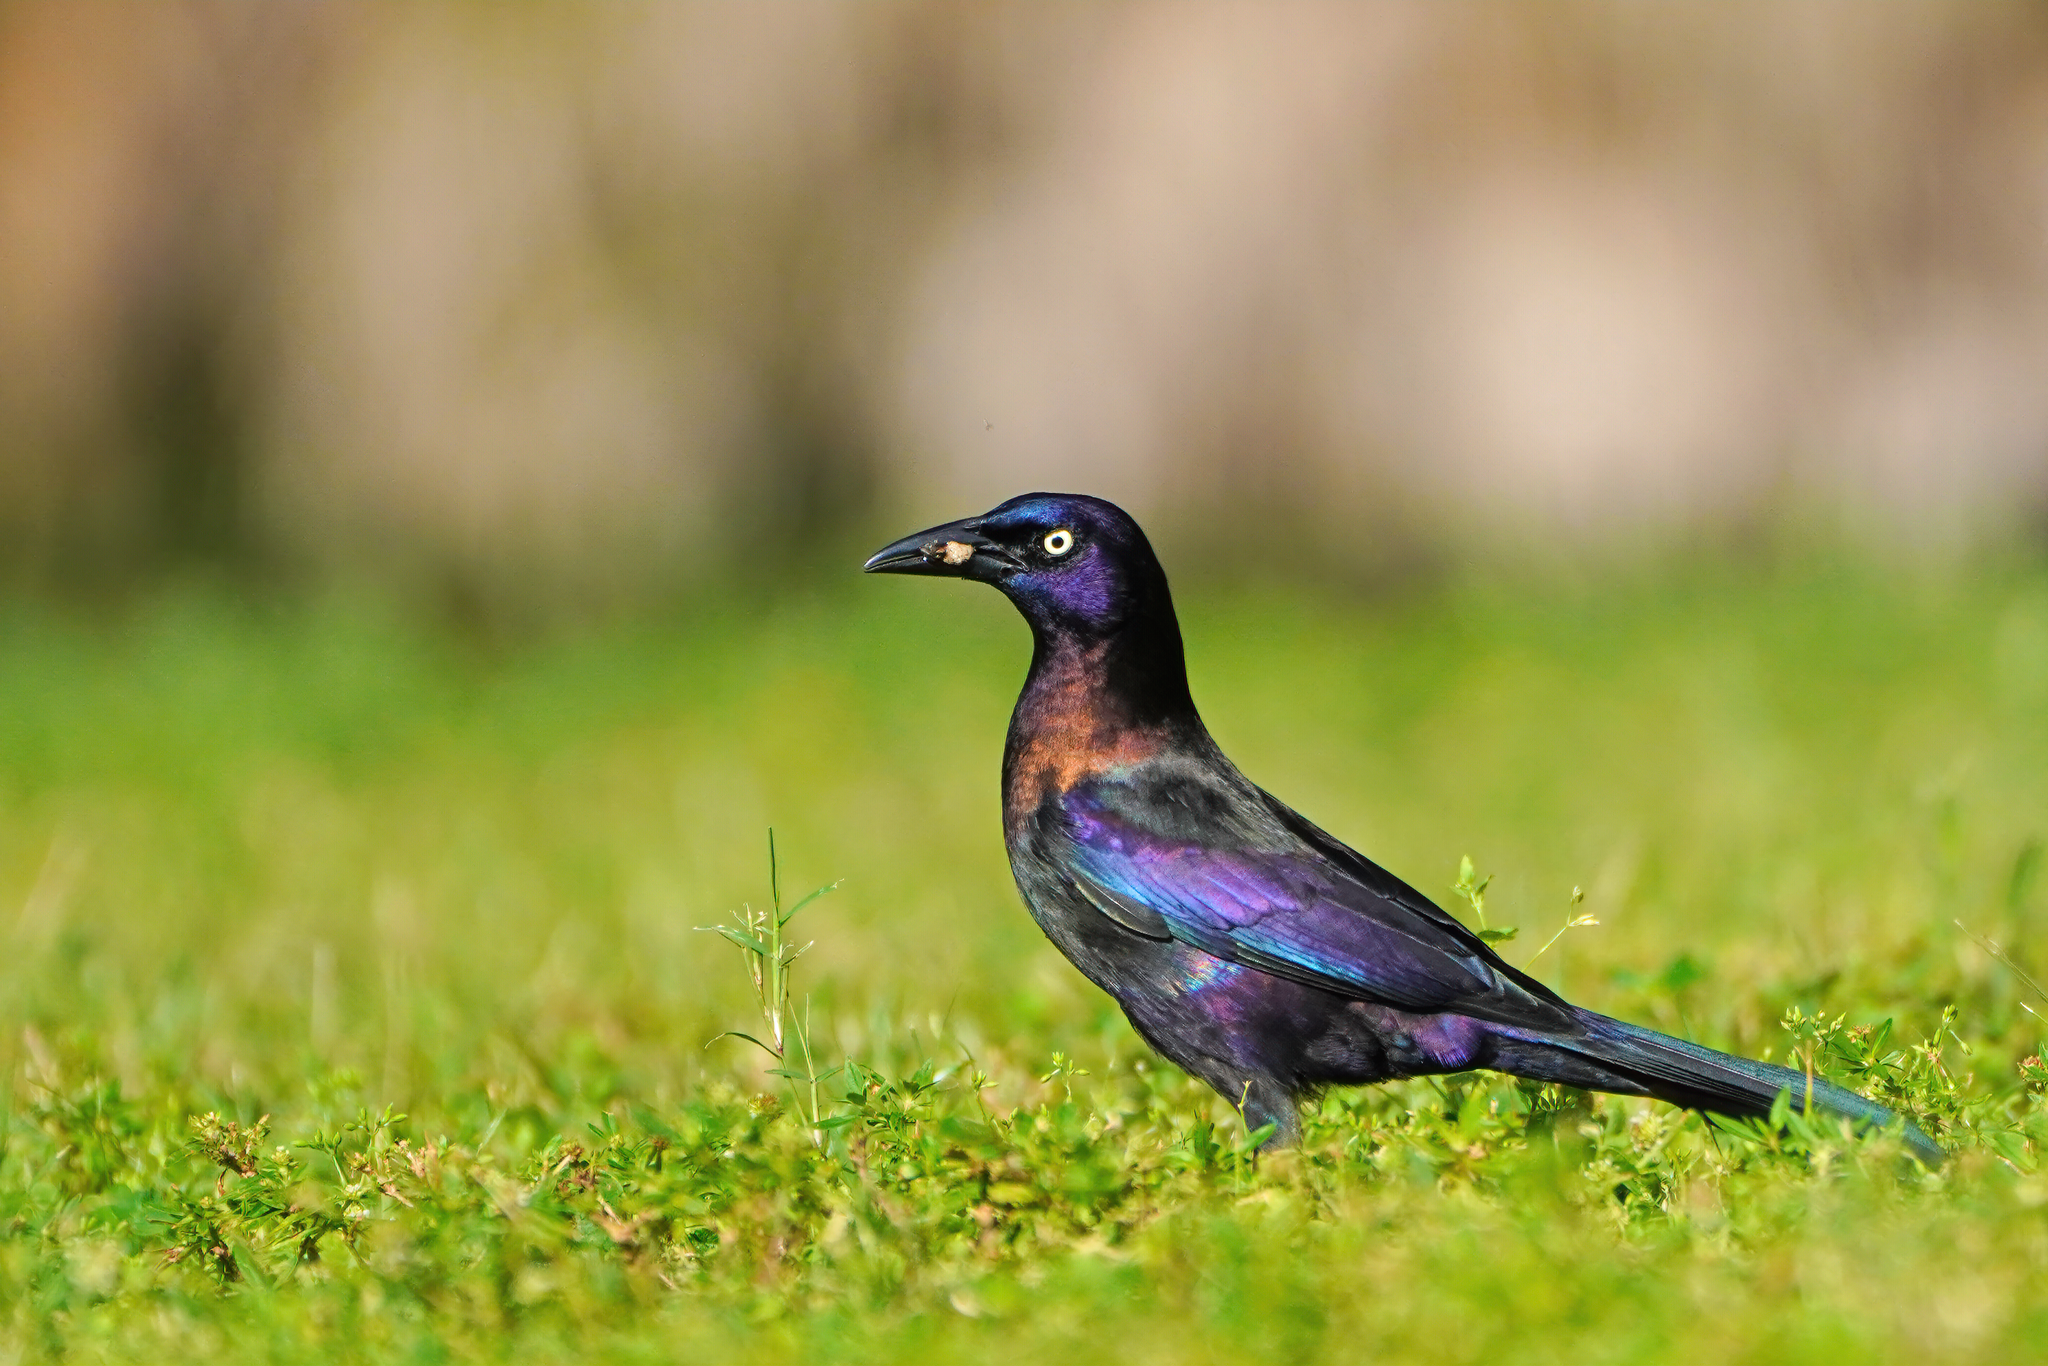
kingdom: Animalia
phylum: Chordata
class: Aves
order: Passeriformes
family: Icteridae
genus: Quiscalus
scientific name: Quiscalus quiscula
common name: Common grackle
